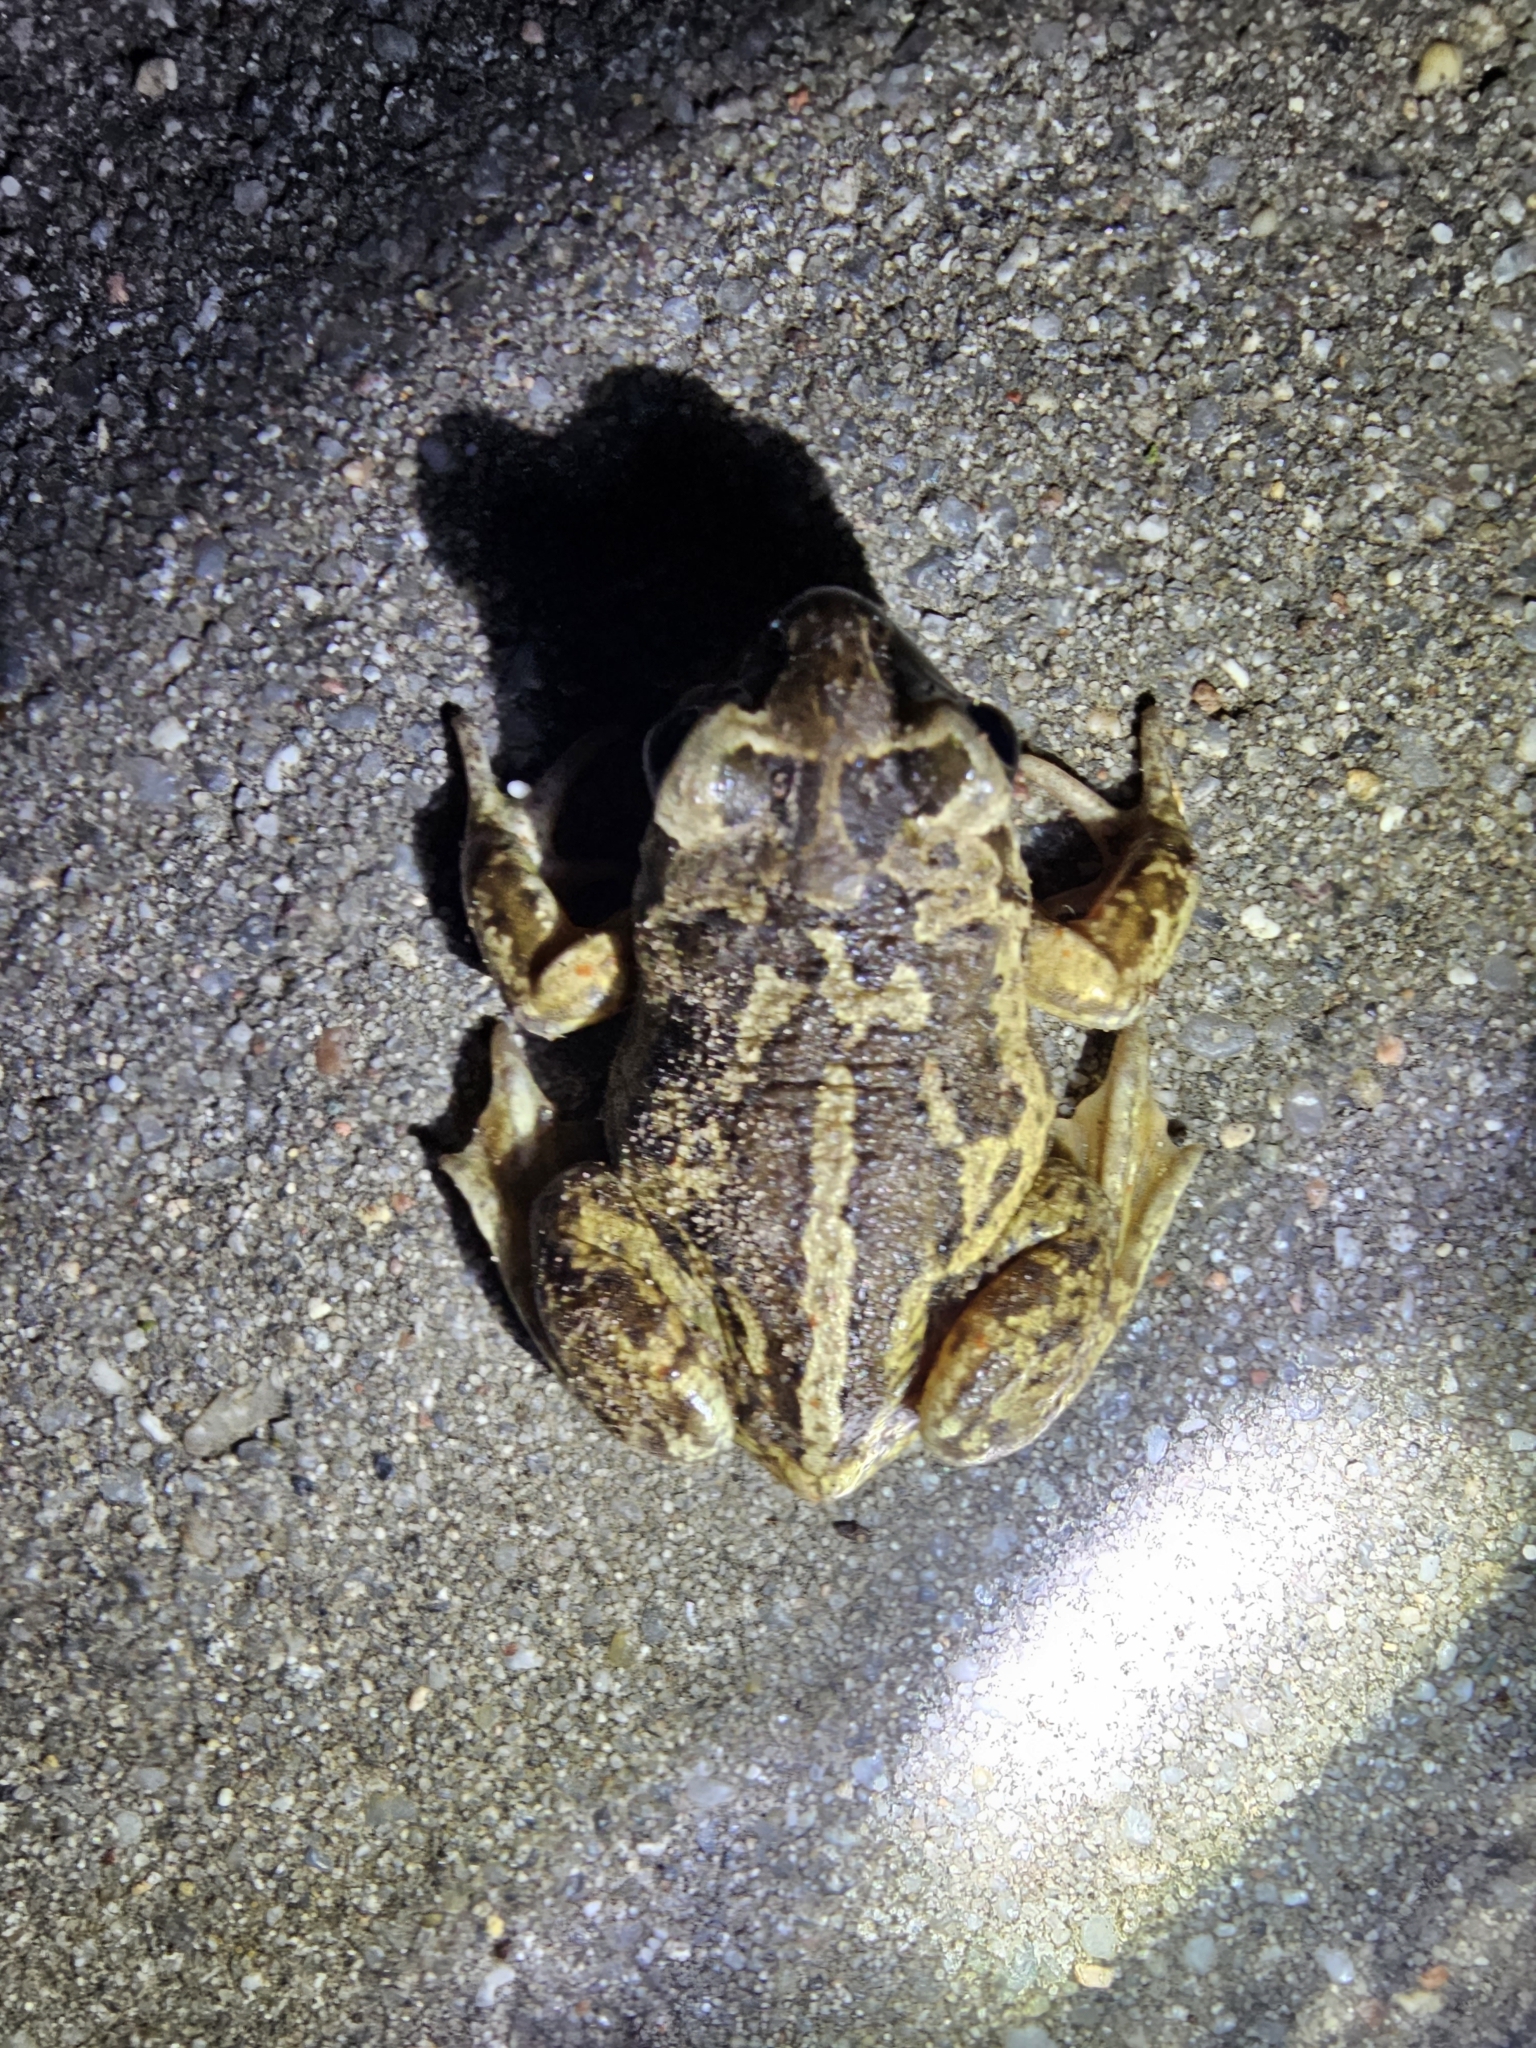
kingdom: Animalia
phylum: Chordata
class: Amphibia
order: Anura
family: Pelobatidae
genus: Pelobates
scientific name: Pelobates fuscus
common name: Common eurasian spadefoot toad
